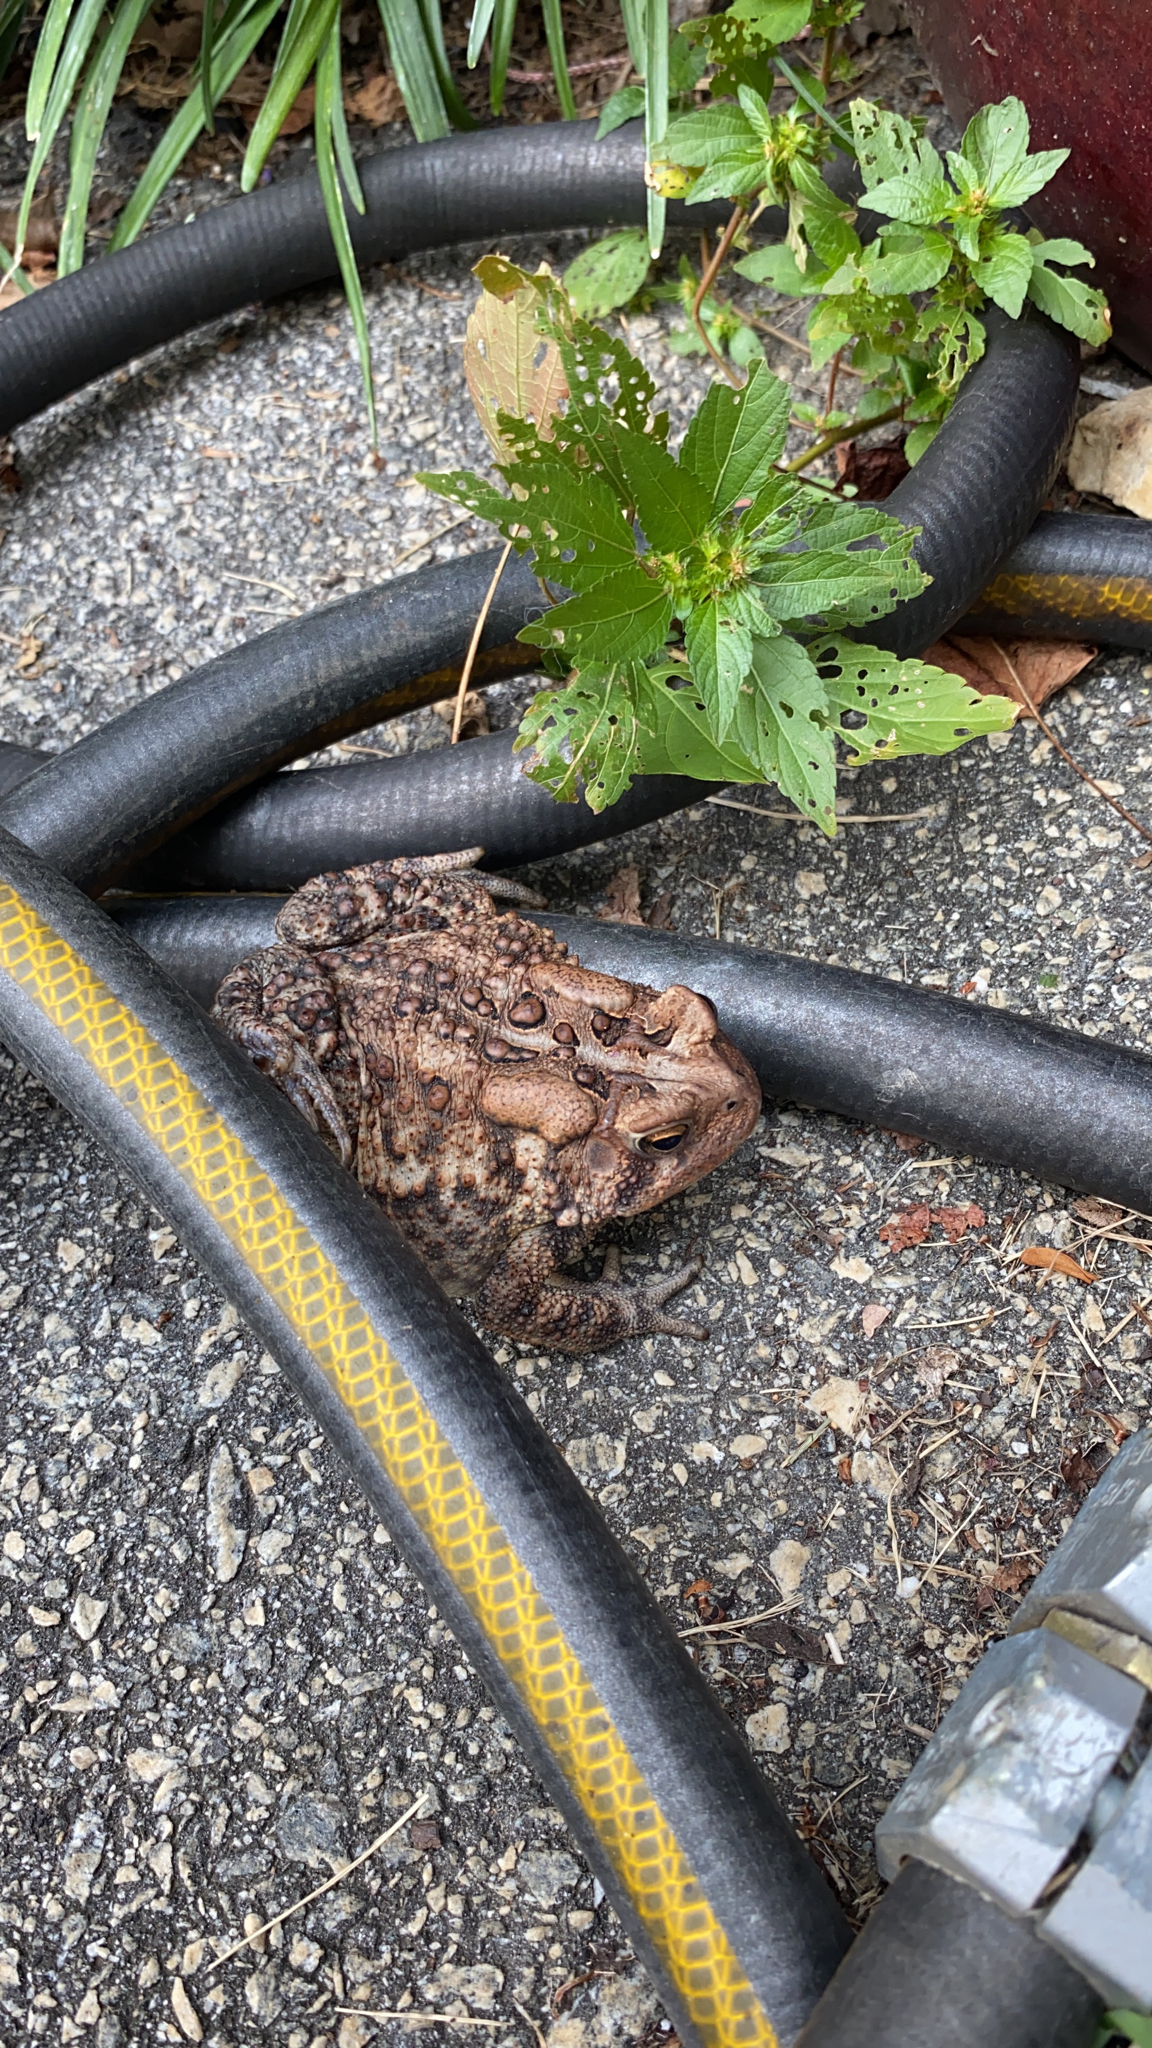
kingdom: Animalia
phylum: Chordata
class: Amphibia
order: Anura
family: Bufonidae
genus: Anaxyrus
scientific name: Anaxyrus americanus
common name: American toad
